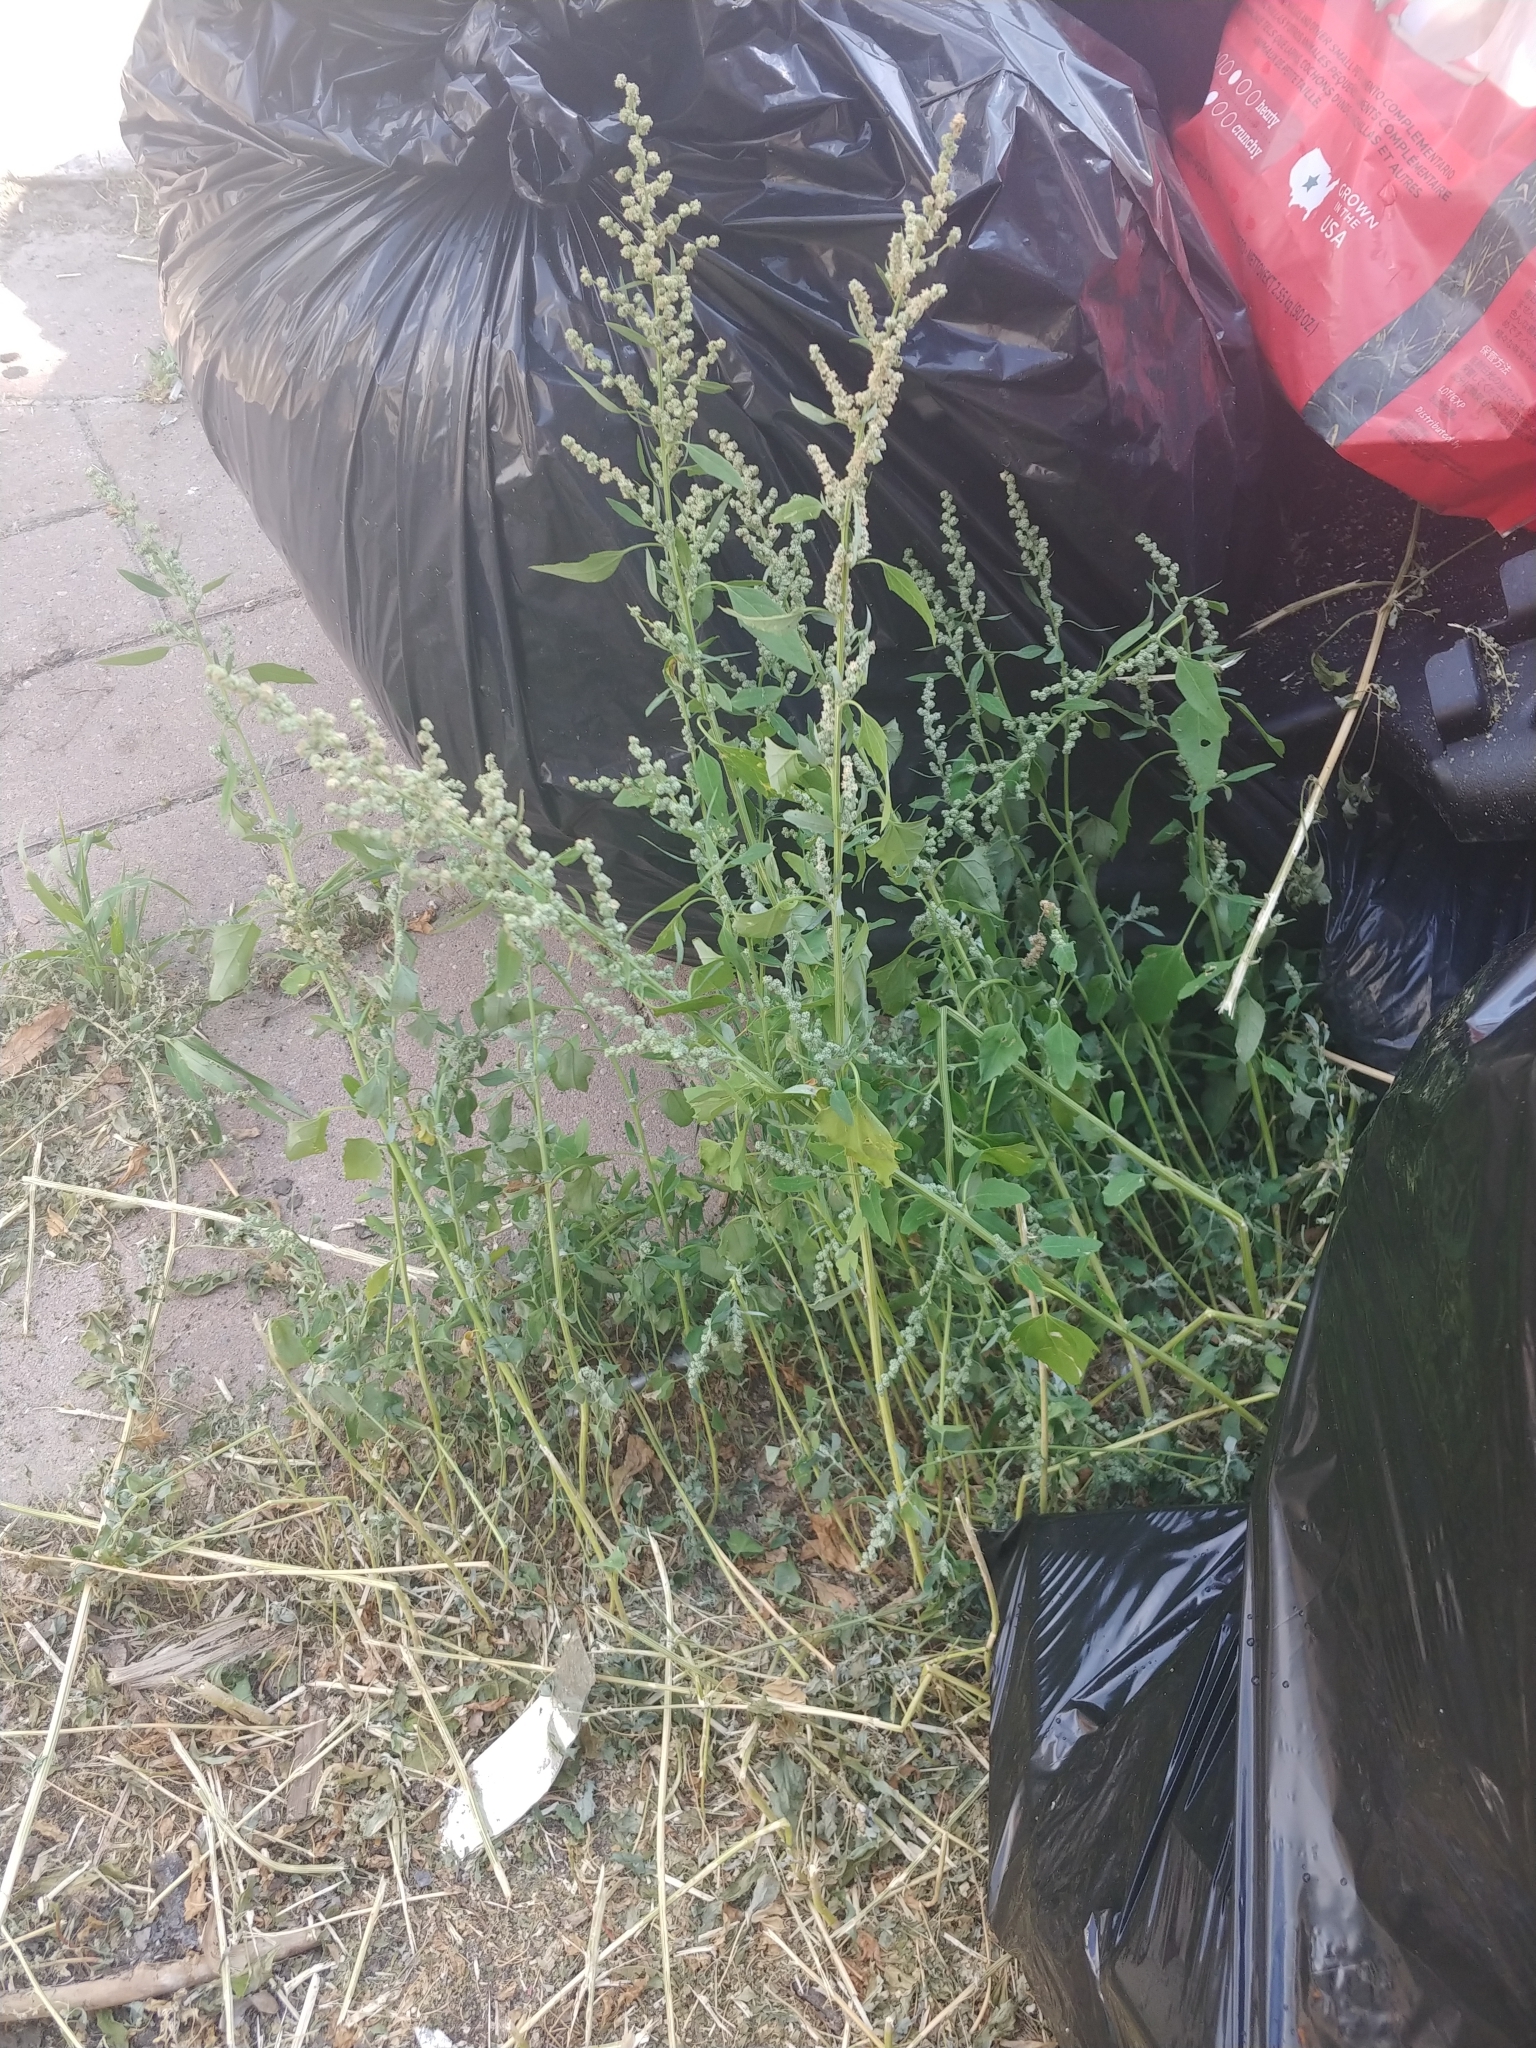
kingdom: Plantae
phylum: Tracheophyta
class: Magnoliopsida
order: Caryophyllales
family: Amaranthaceae
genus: Chenopodium
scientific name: Chenopodium album
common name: Fat-hen
